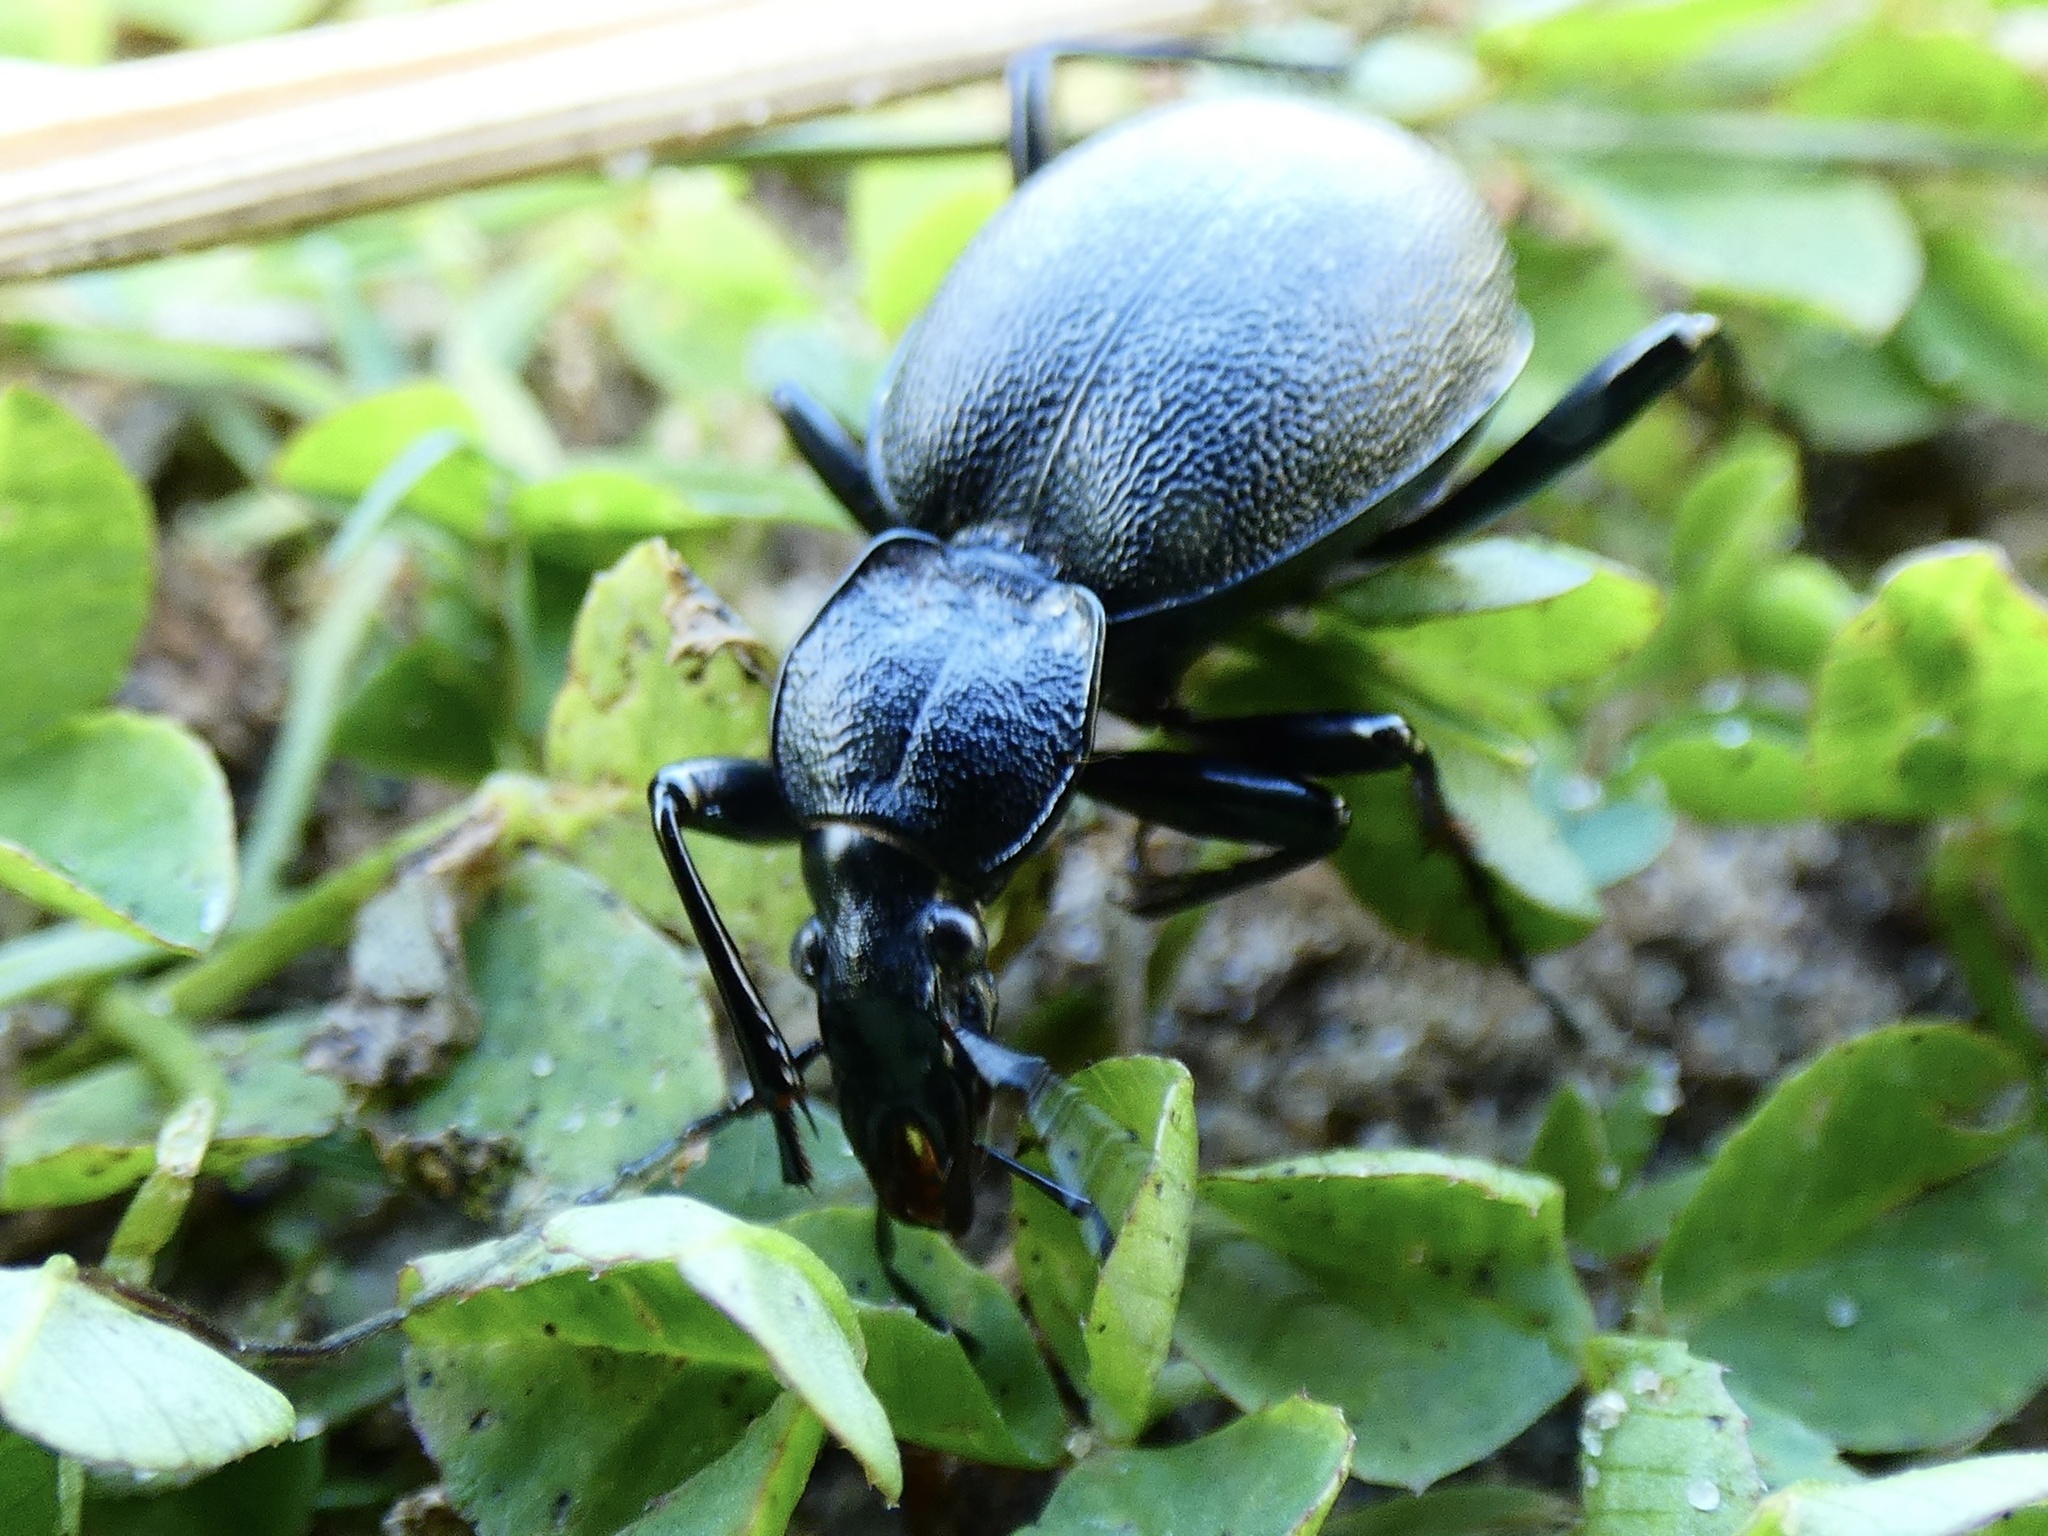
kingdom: Animalia
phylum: Arthropoda
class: Insecta
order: Coleoptera
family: Carabidae
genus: Cychrus
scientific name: Cychrus caraboides
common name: Snail hunter
